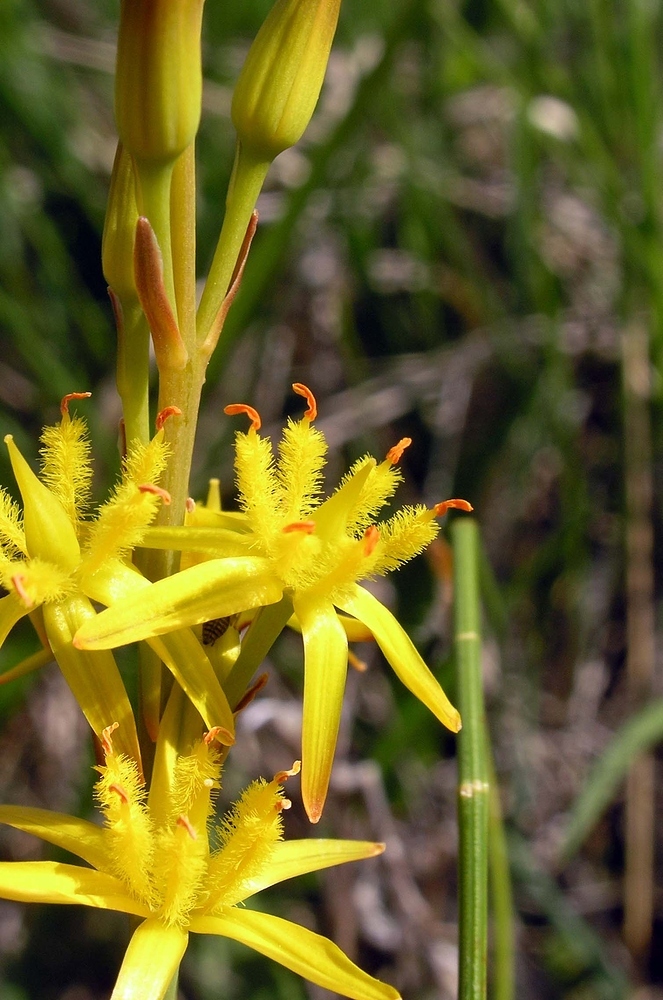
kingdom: Plantae
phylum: Tracheophyta
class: Liliopsida
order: Dioscoreales
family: Nartheciaceae
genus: Narthecium
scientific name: Narthecium ossifragum
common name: Bog asphodel
